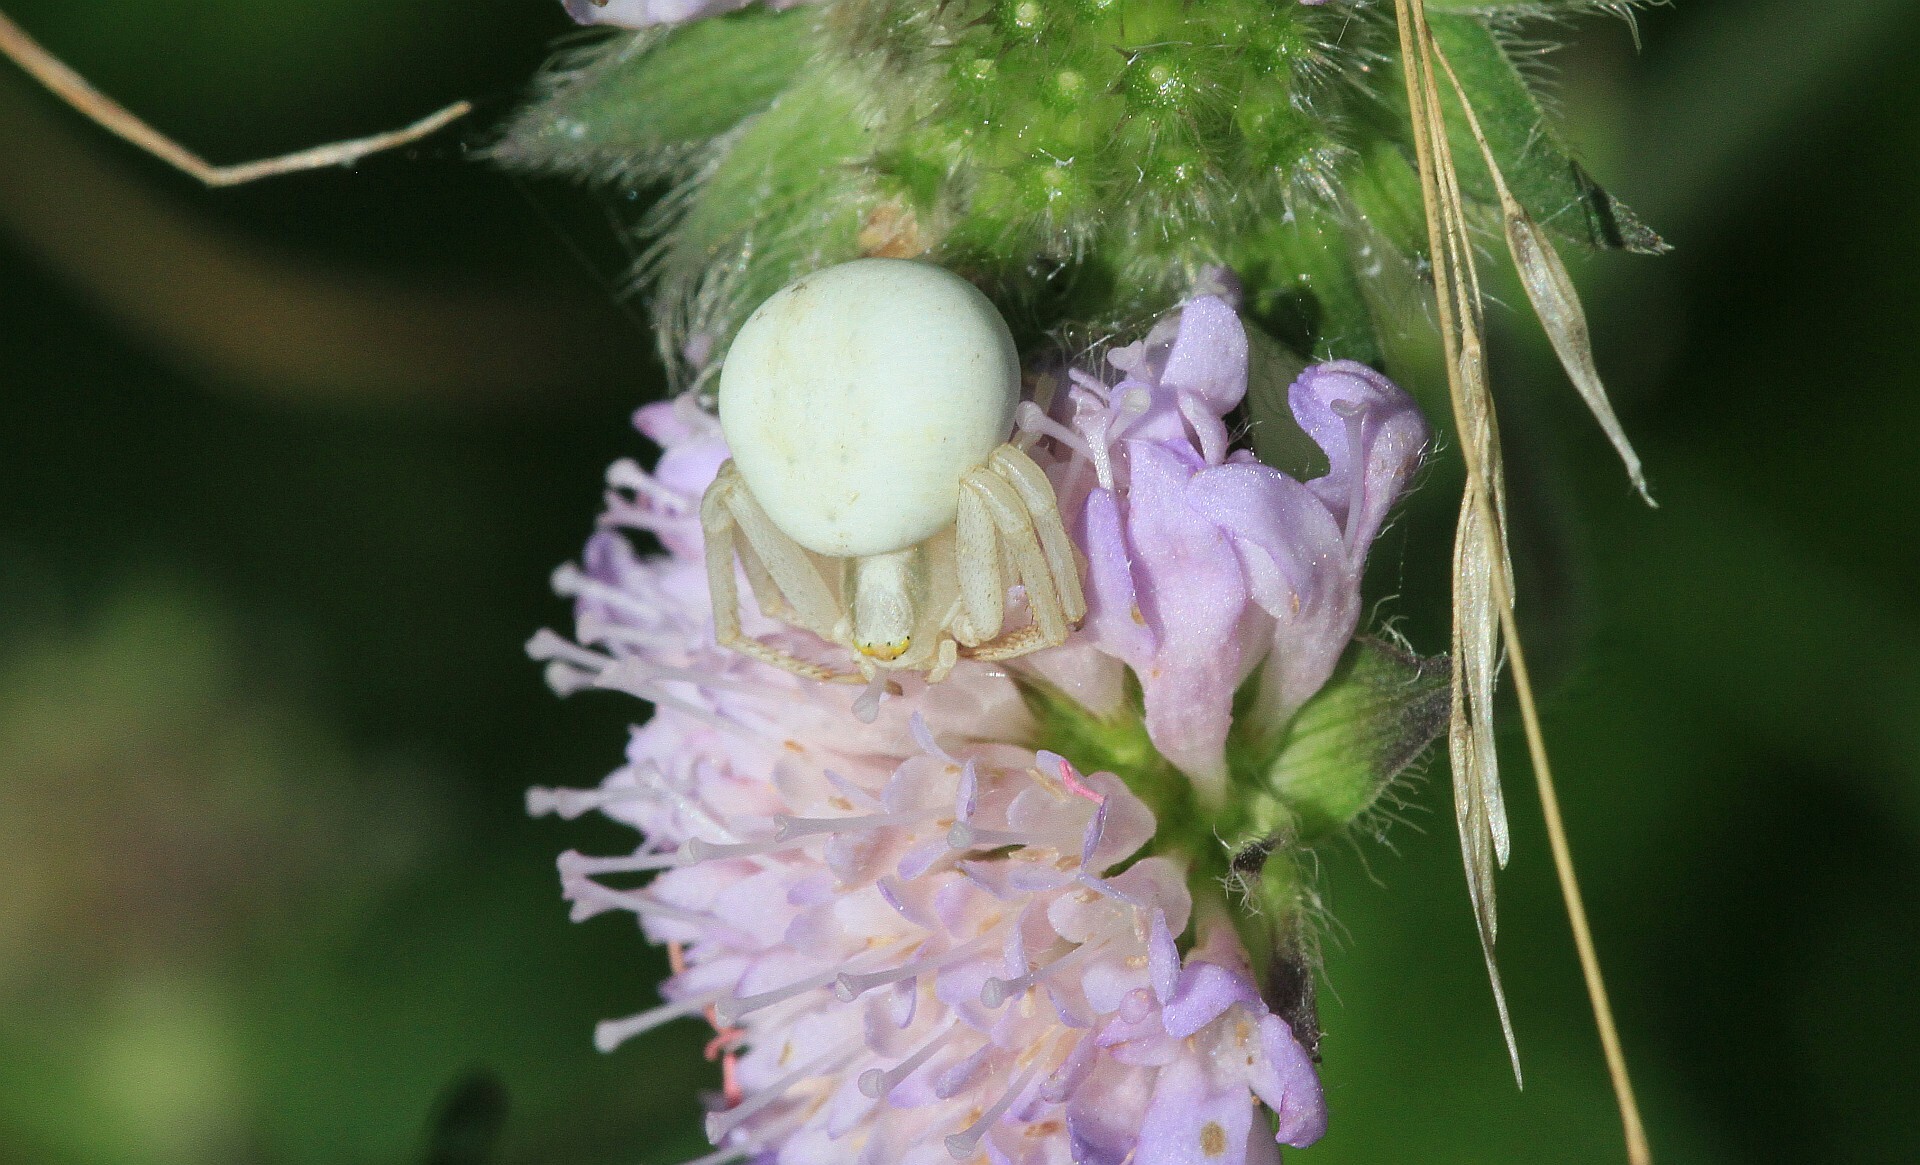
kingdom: Animalia
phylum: Arthropoda
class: Arachnida
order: Araneae
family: Thomisidae
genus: Misumena
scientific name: Misumena vatia
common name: Goldenrod crab spider
